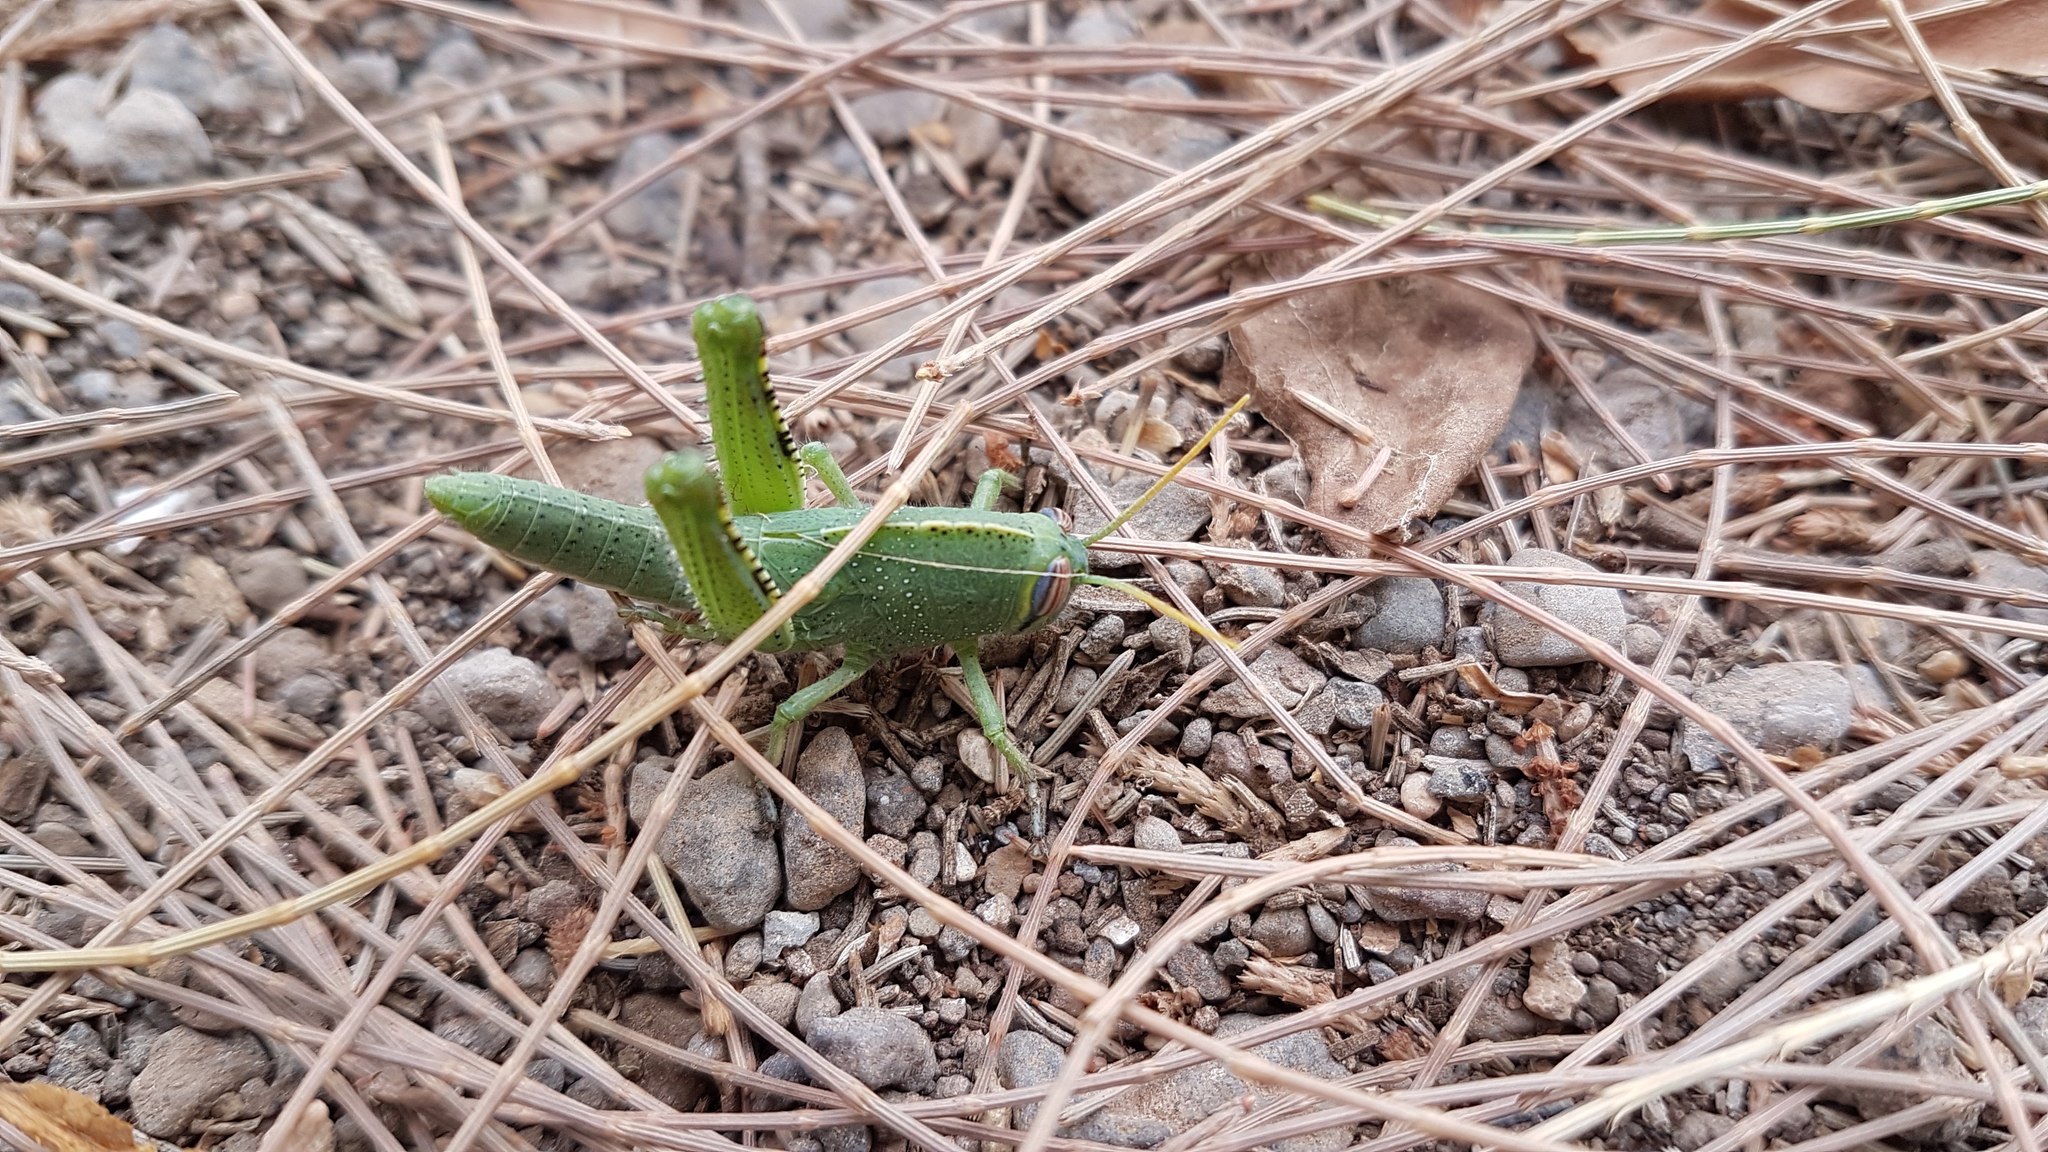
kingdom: Animalia
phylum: Arthropoda
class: Insecta
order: Orthoptera
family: Acrididae
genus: Anacridium
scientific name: Anacridium aegyptium
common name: Egyptian grasshopper
